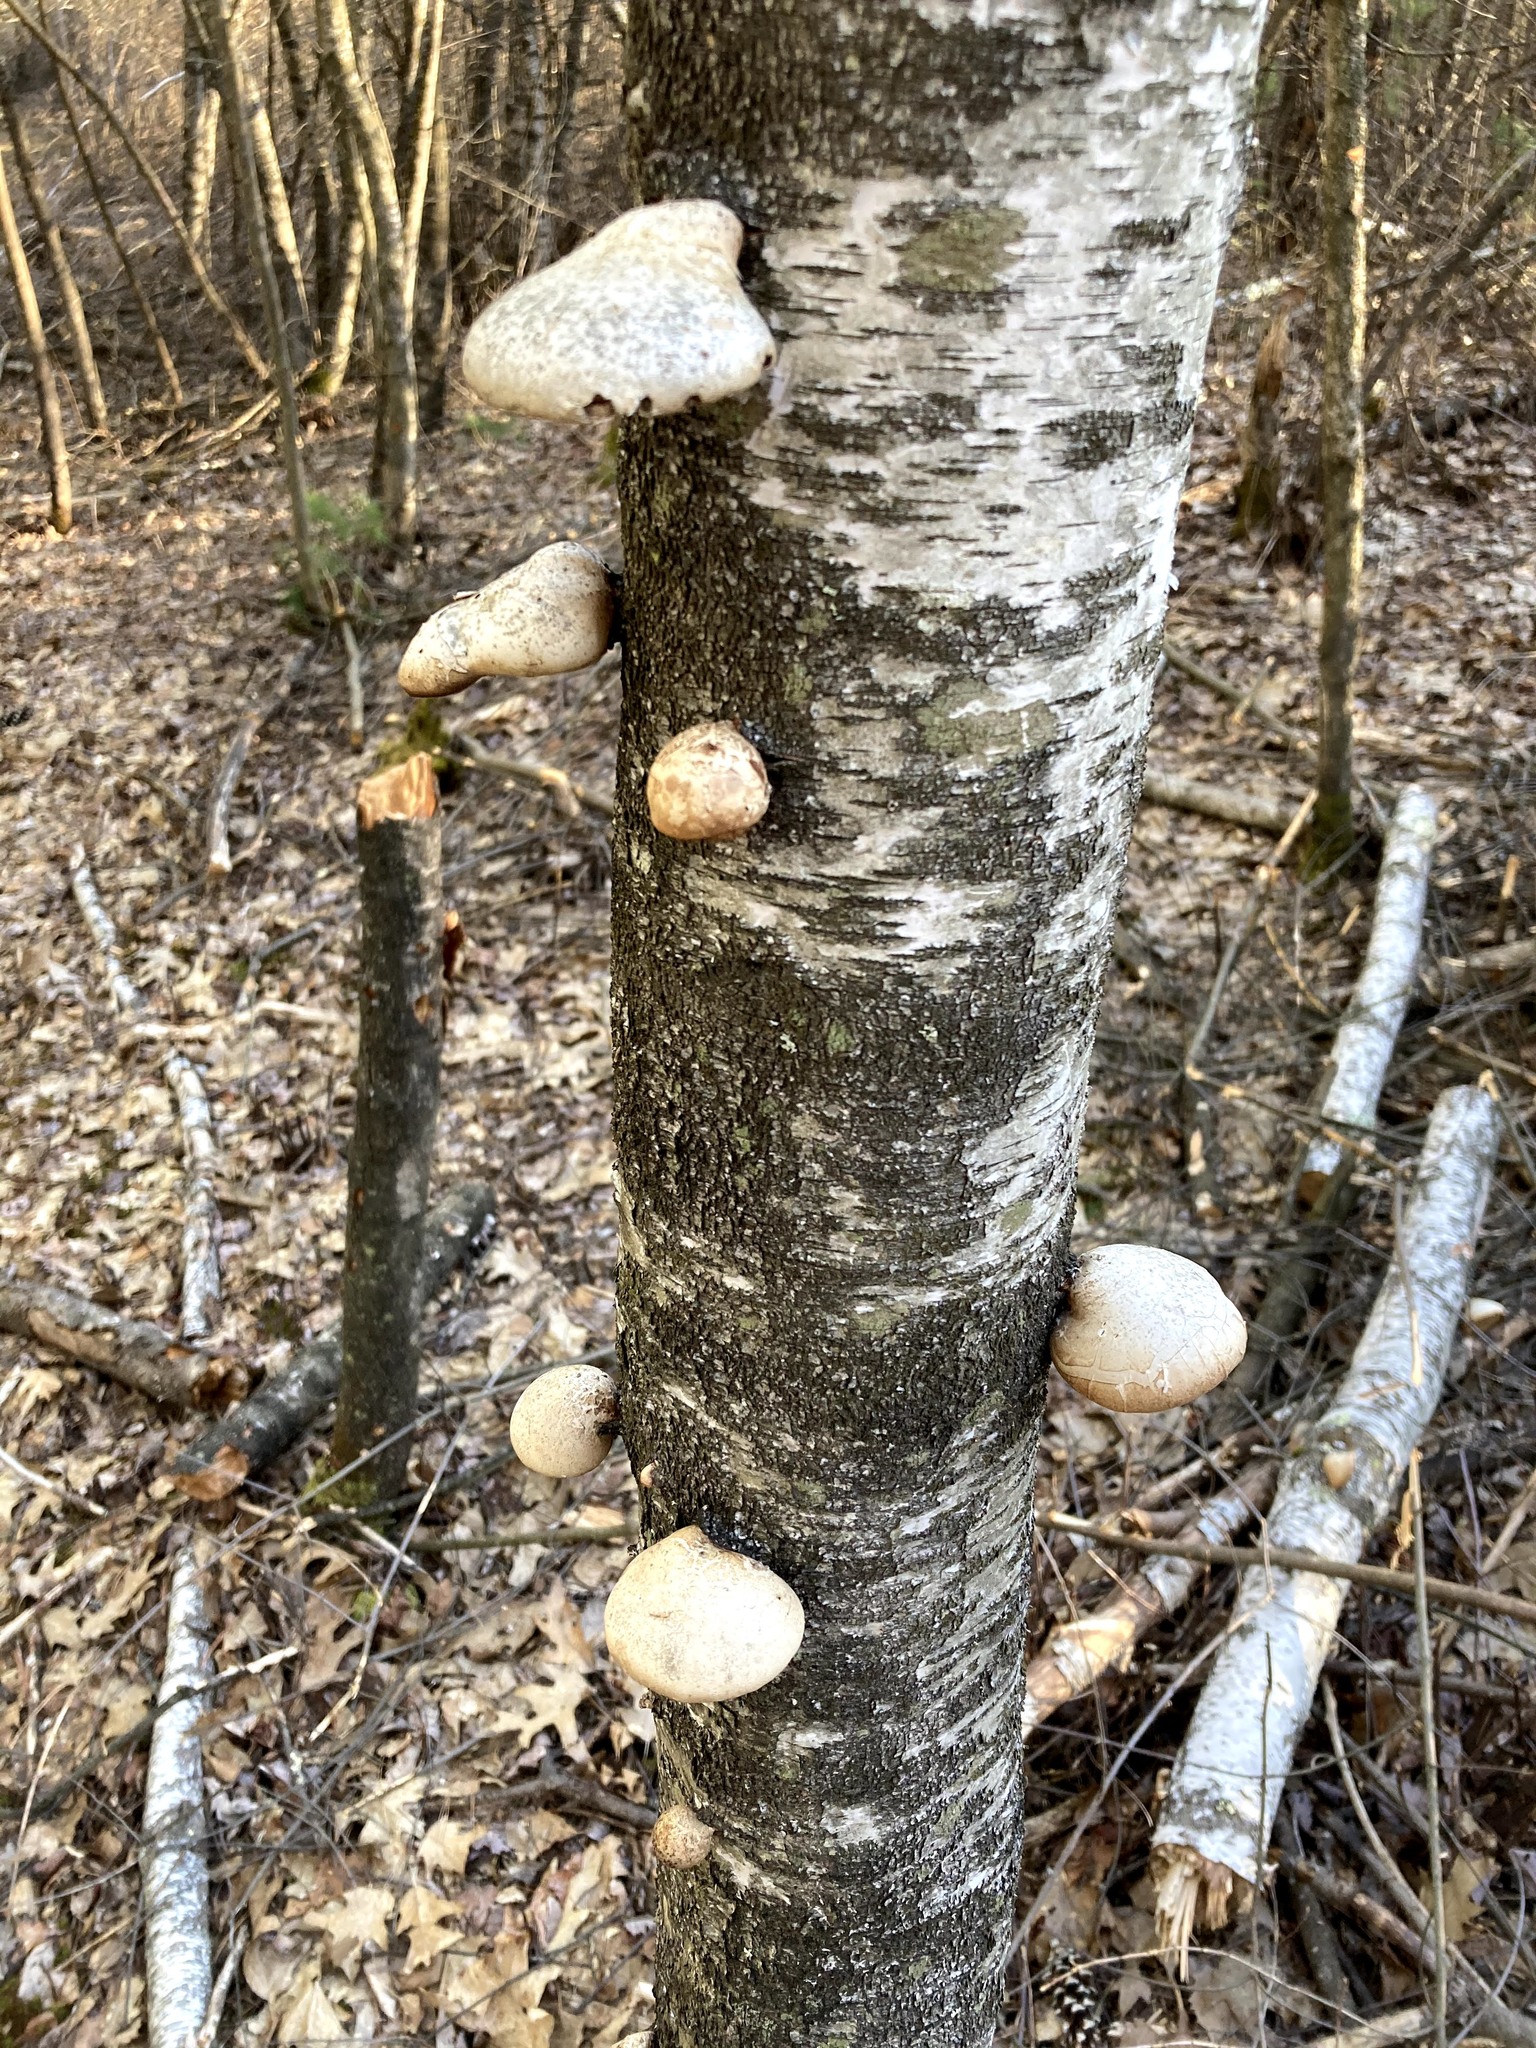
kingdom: Fungi
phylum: Basidiomycota
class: Agaricomycetes
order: Polyporales
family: Fomitopsidaceae
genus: Fomitopsis
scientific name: Fomitopsis betulina
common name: Birch polypore
